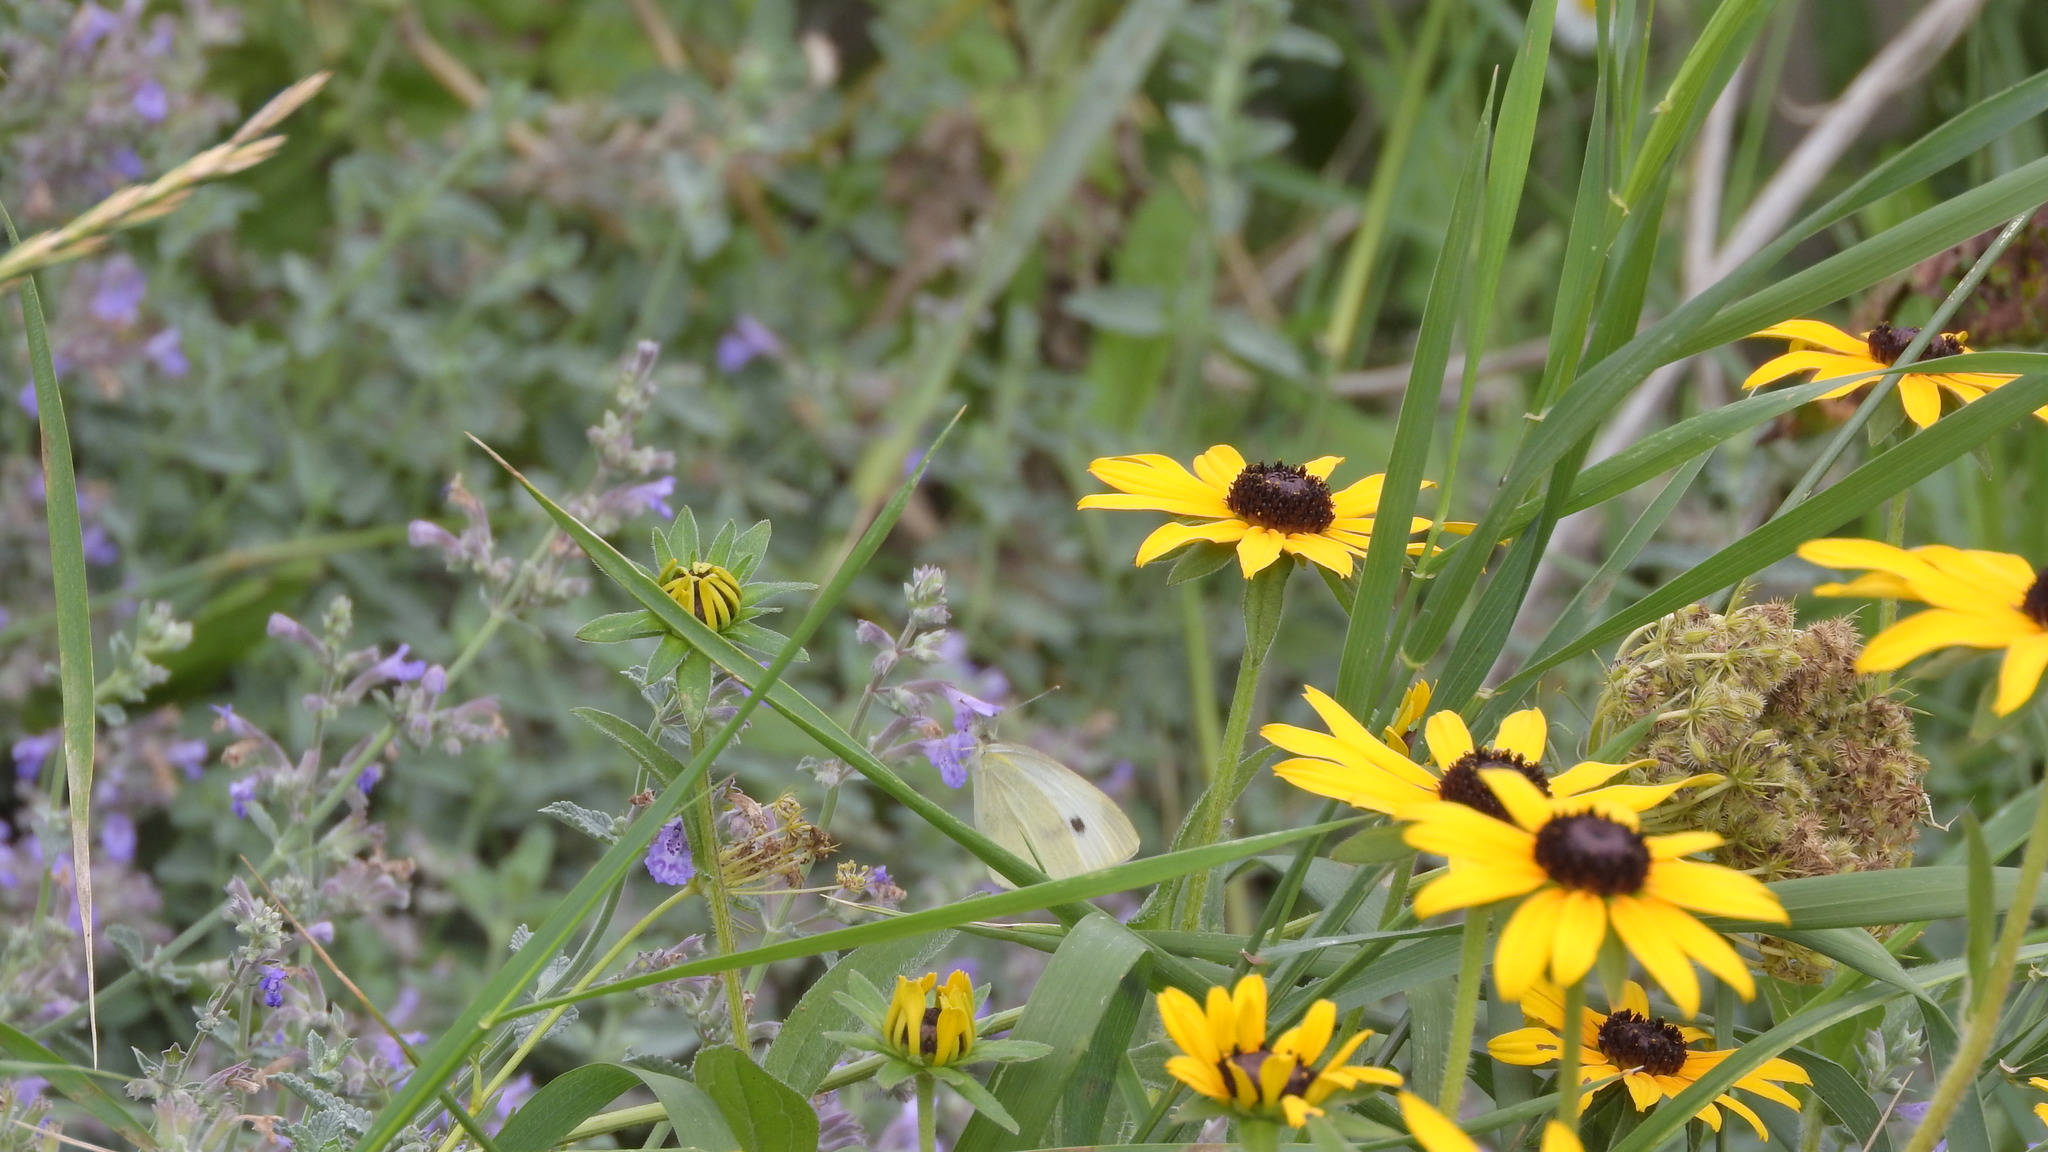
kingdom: Animalia
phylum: Arthropoda
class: Insecta
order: Lepidoptera
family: Pieridae
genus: Pieris
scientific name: Pieris rapae
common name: Small white
